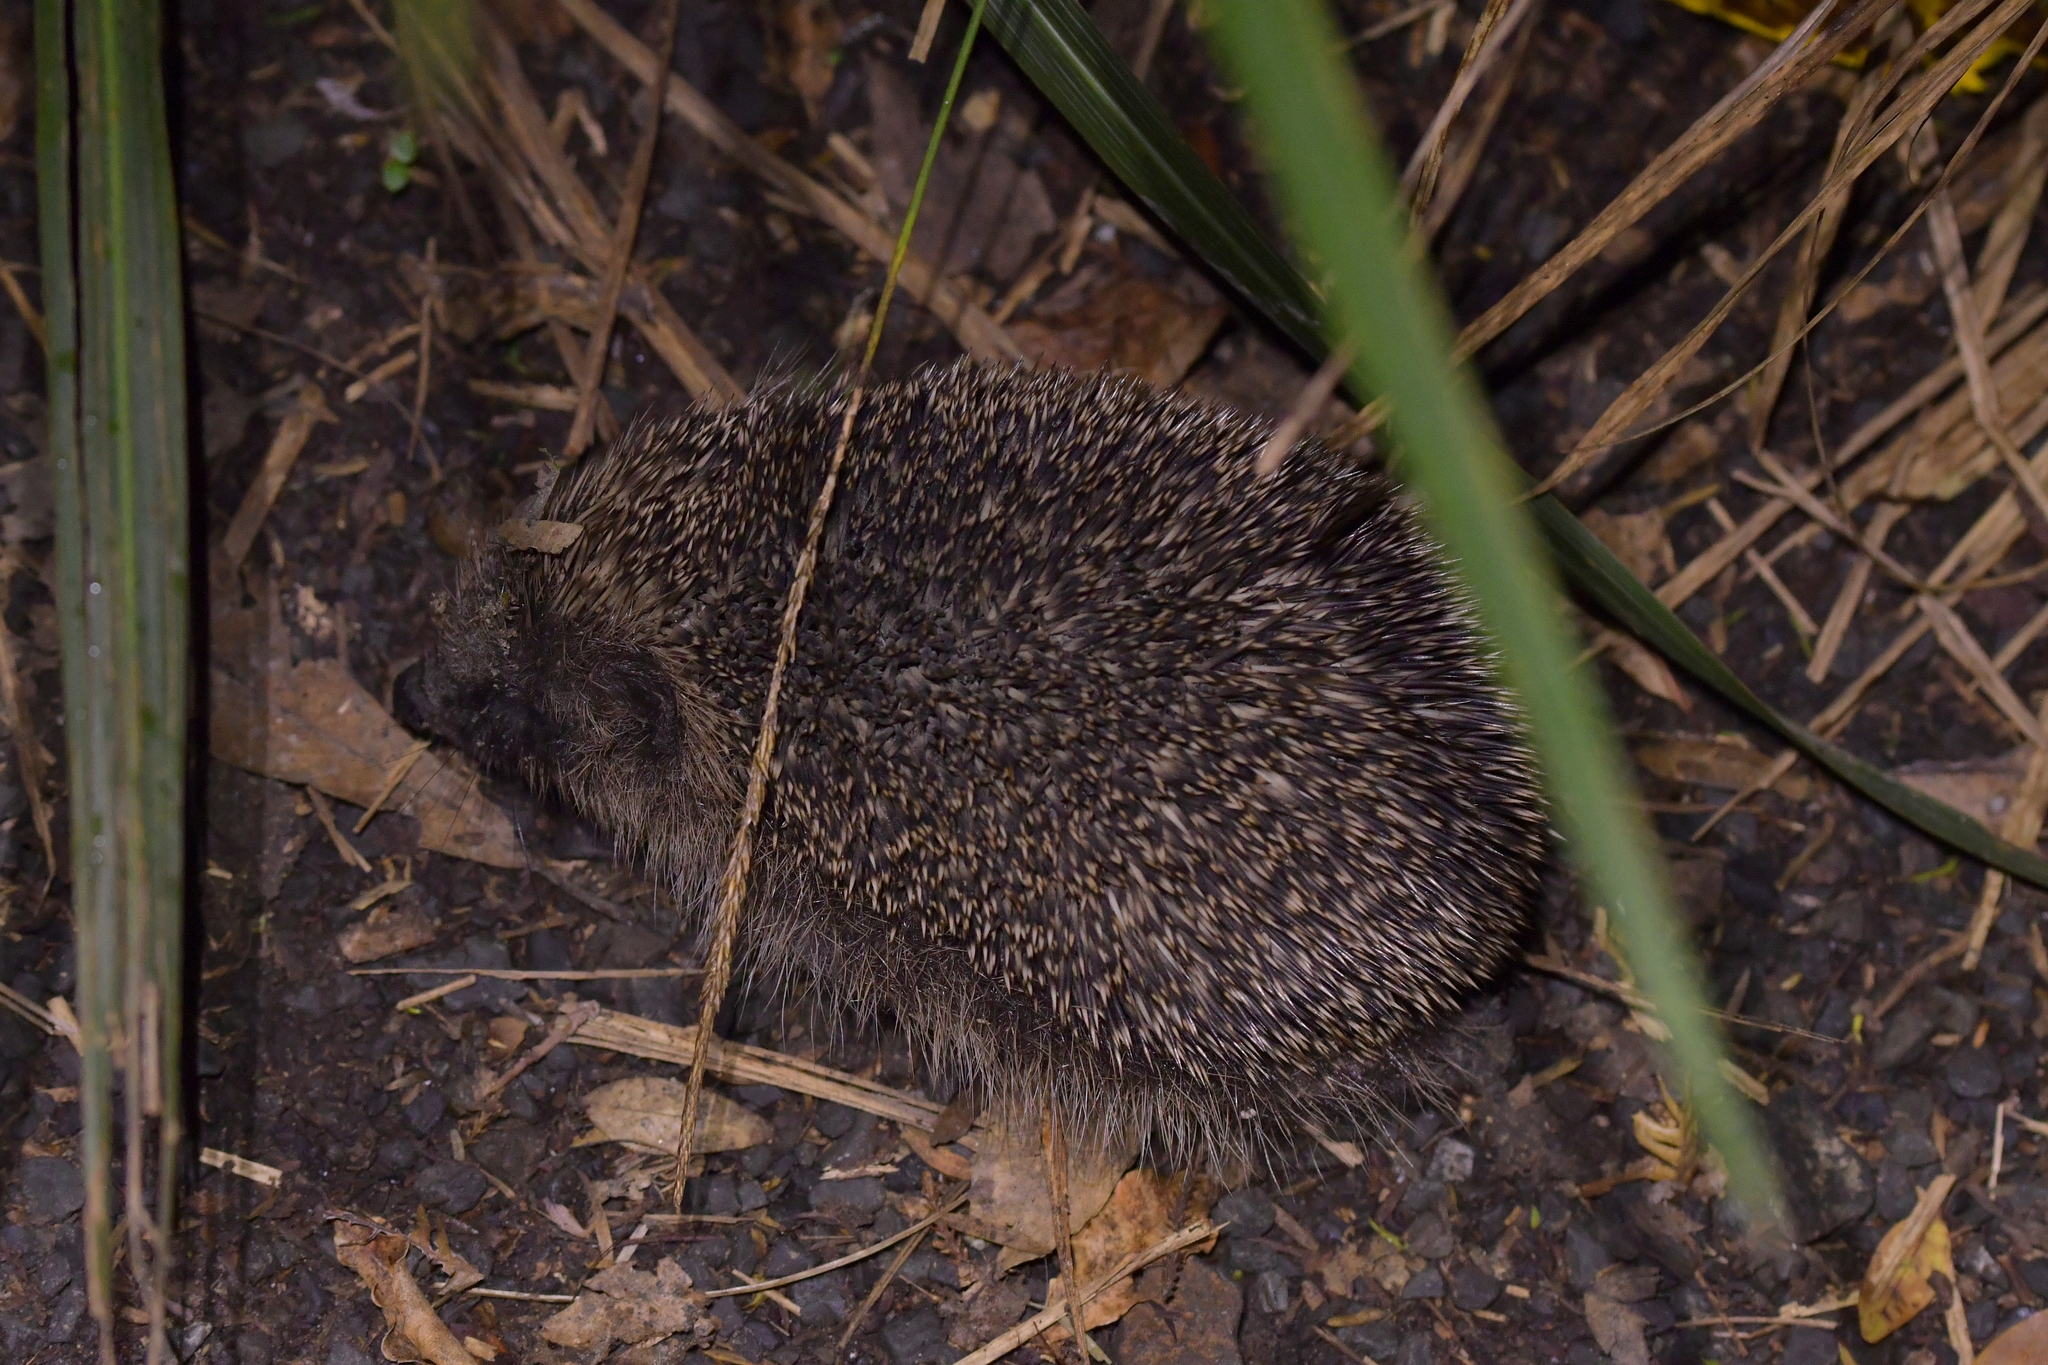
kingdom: Animalia
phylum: Chordata
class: Mammalia
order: Erinaceomorpha
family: Erinaceidae
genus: Erinaceus
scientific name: Erinaceus europaeus
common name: West european hedgehog
